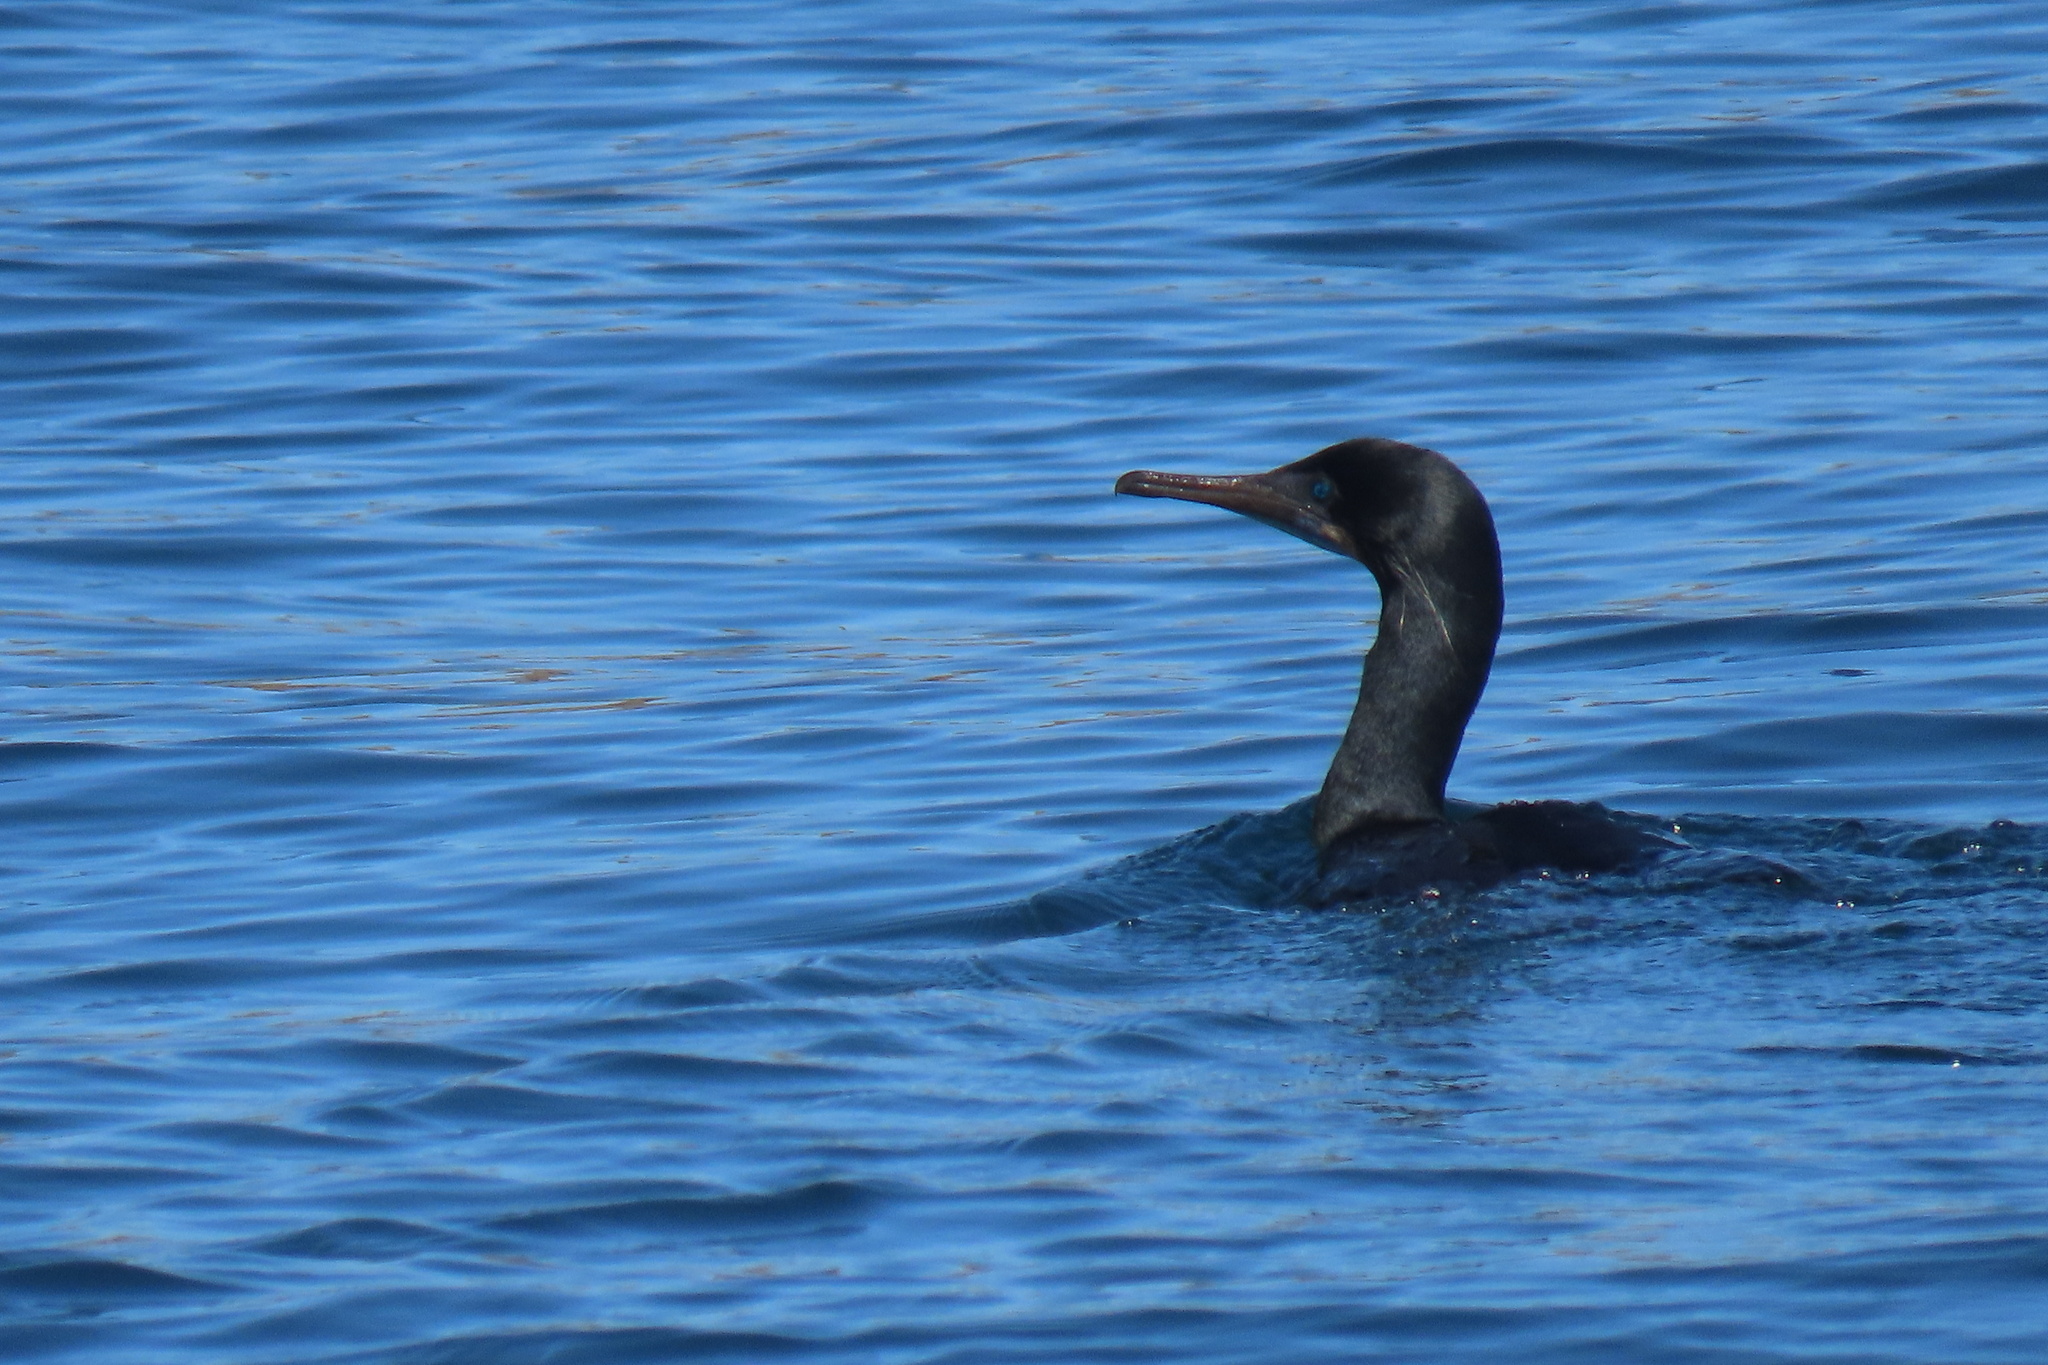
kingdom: Animalia
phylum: Chordata
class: Aves
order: Suliformes
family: Phalacrocoracidae
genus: Urile
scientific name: Urile penicillatus
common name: Brandt's cormorant
